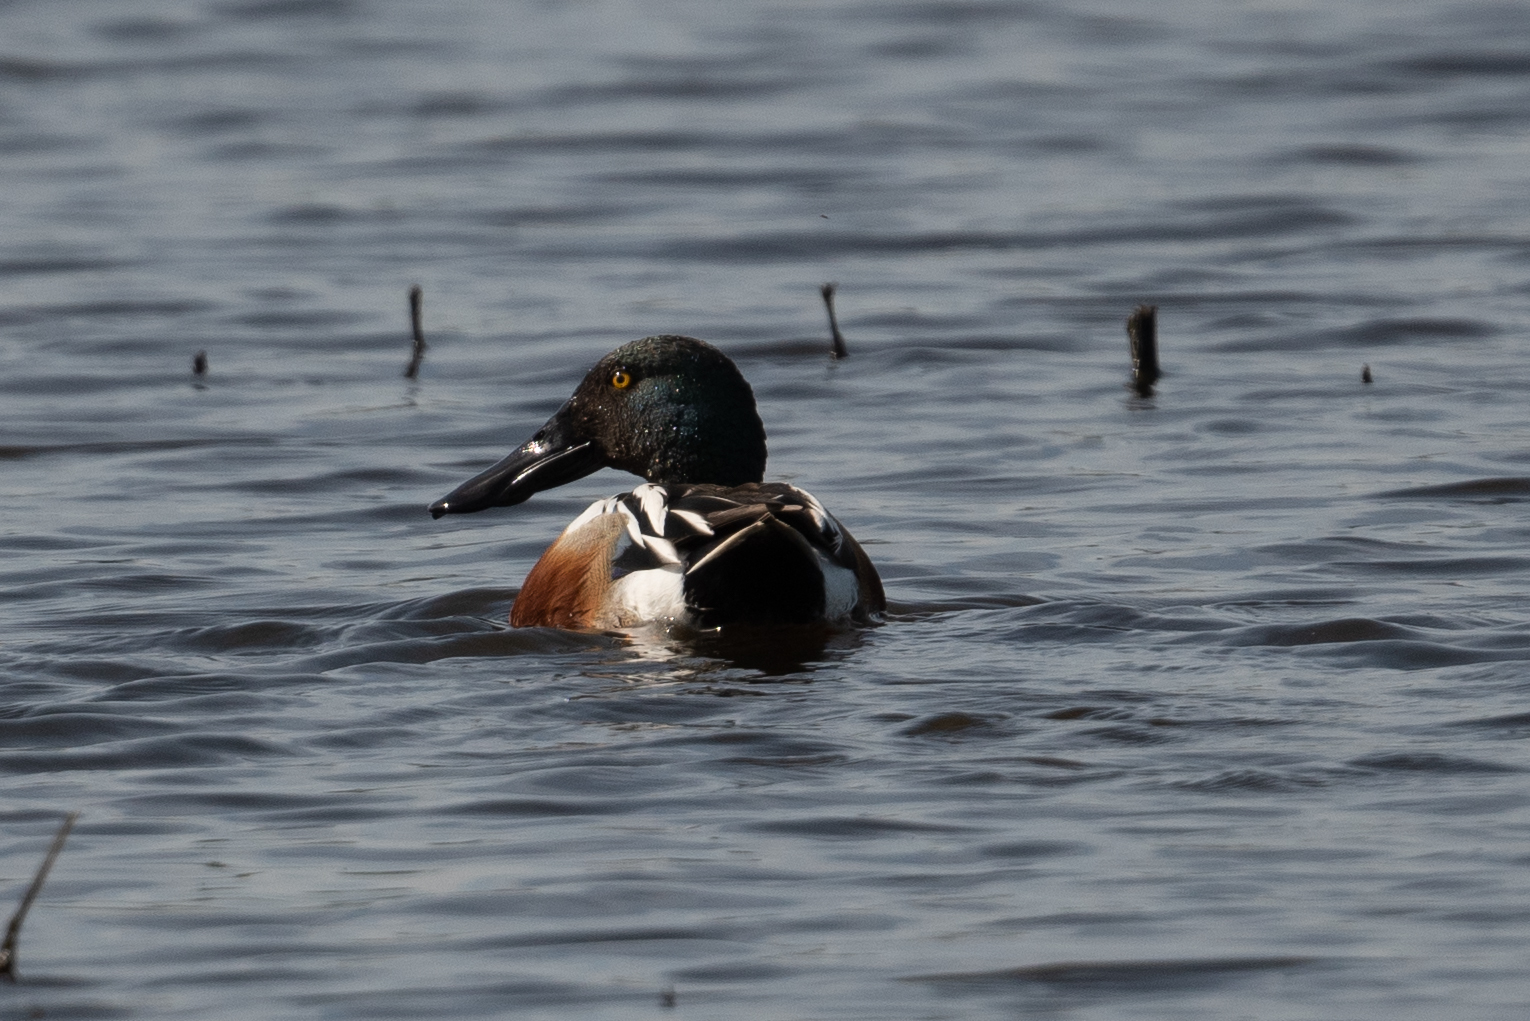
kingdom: Animalia
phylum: Chordata
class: Aves
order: Anseriformes
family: Anatidae
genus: Spatula
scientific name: Spatula clypeata
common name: Northern shoveler
